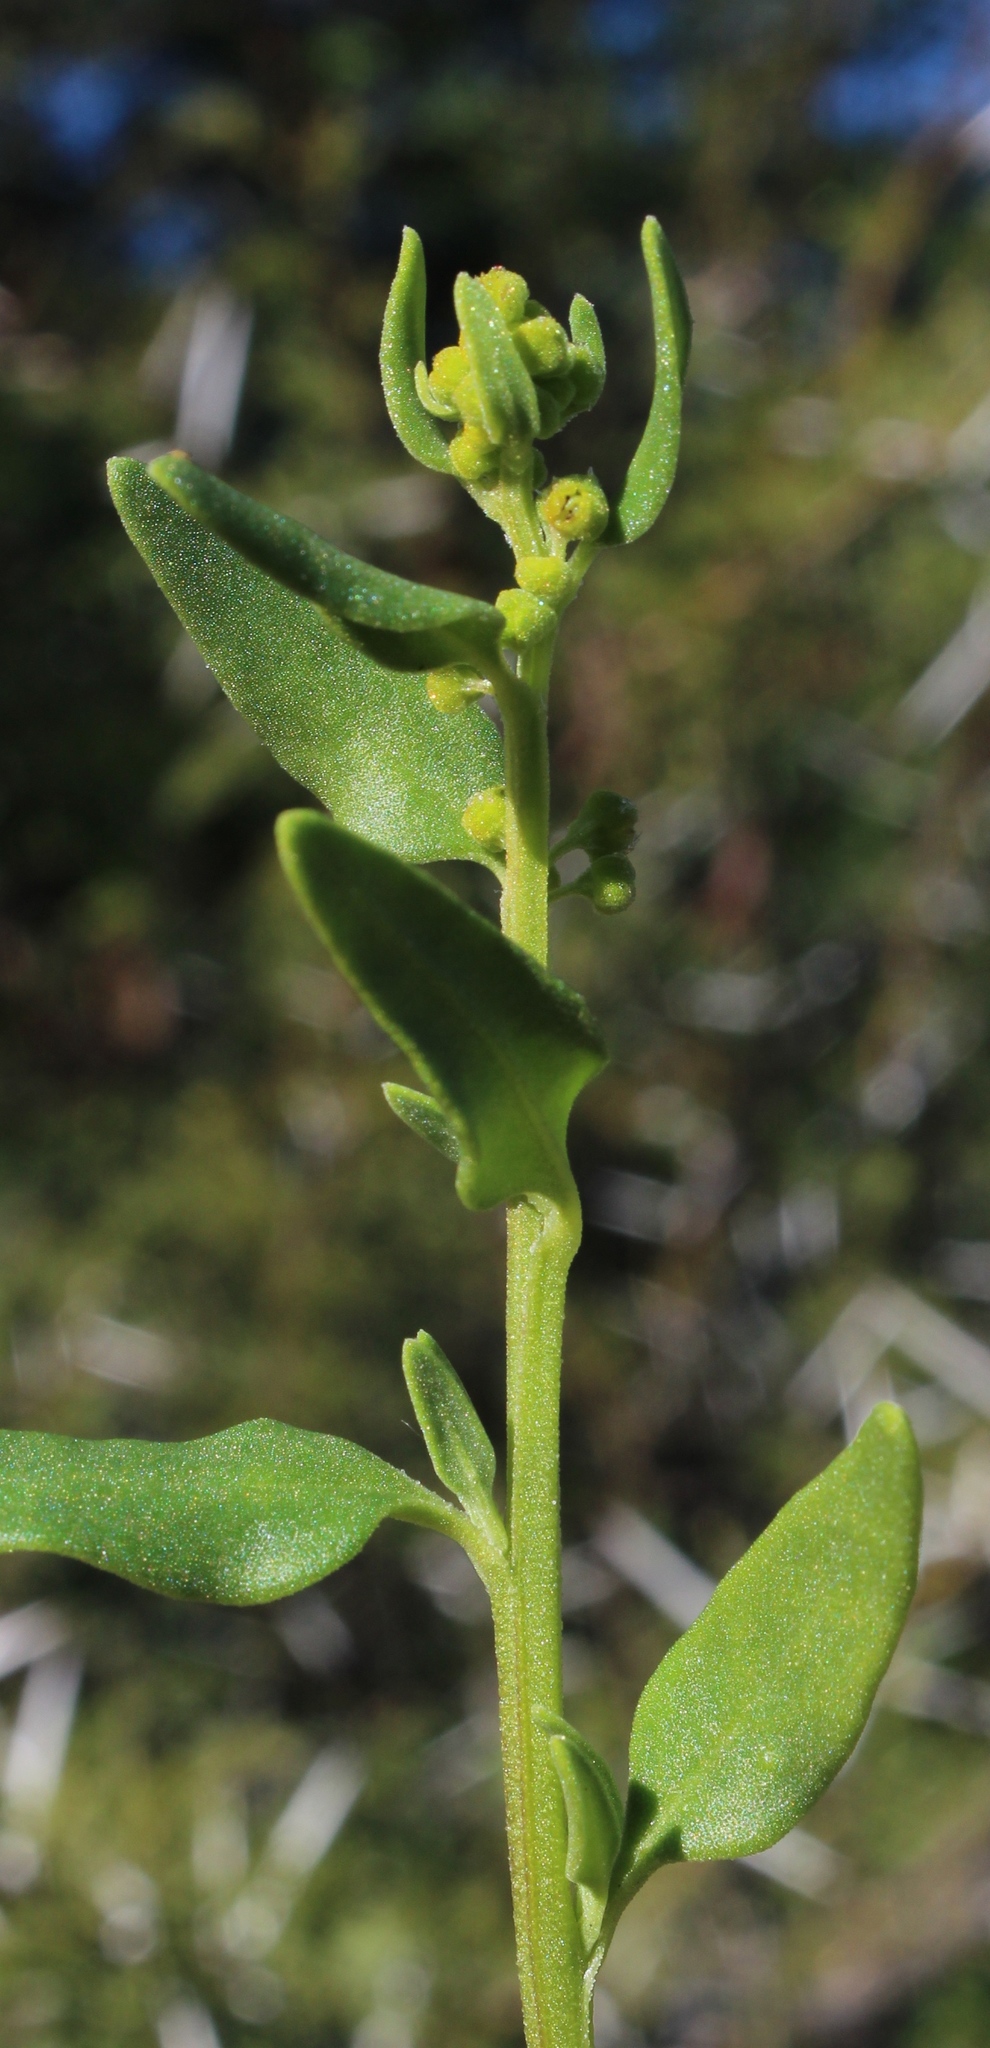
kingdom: Plantae
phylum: Tracheophyta
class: Magnoliopsida
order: Caryophyllales
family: Aizoaceae
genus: Tetragonia
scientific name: Tetragonia reduplicata
